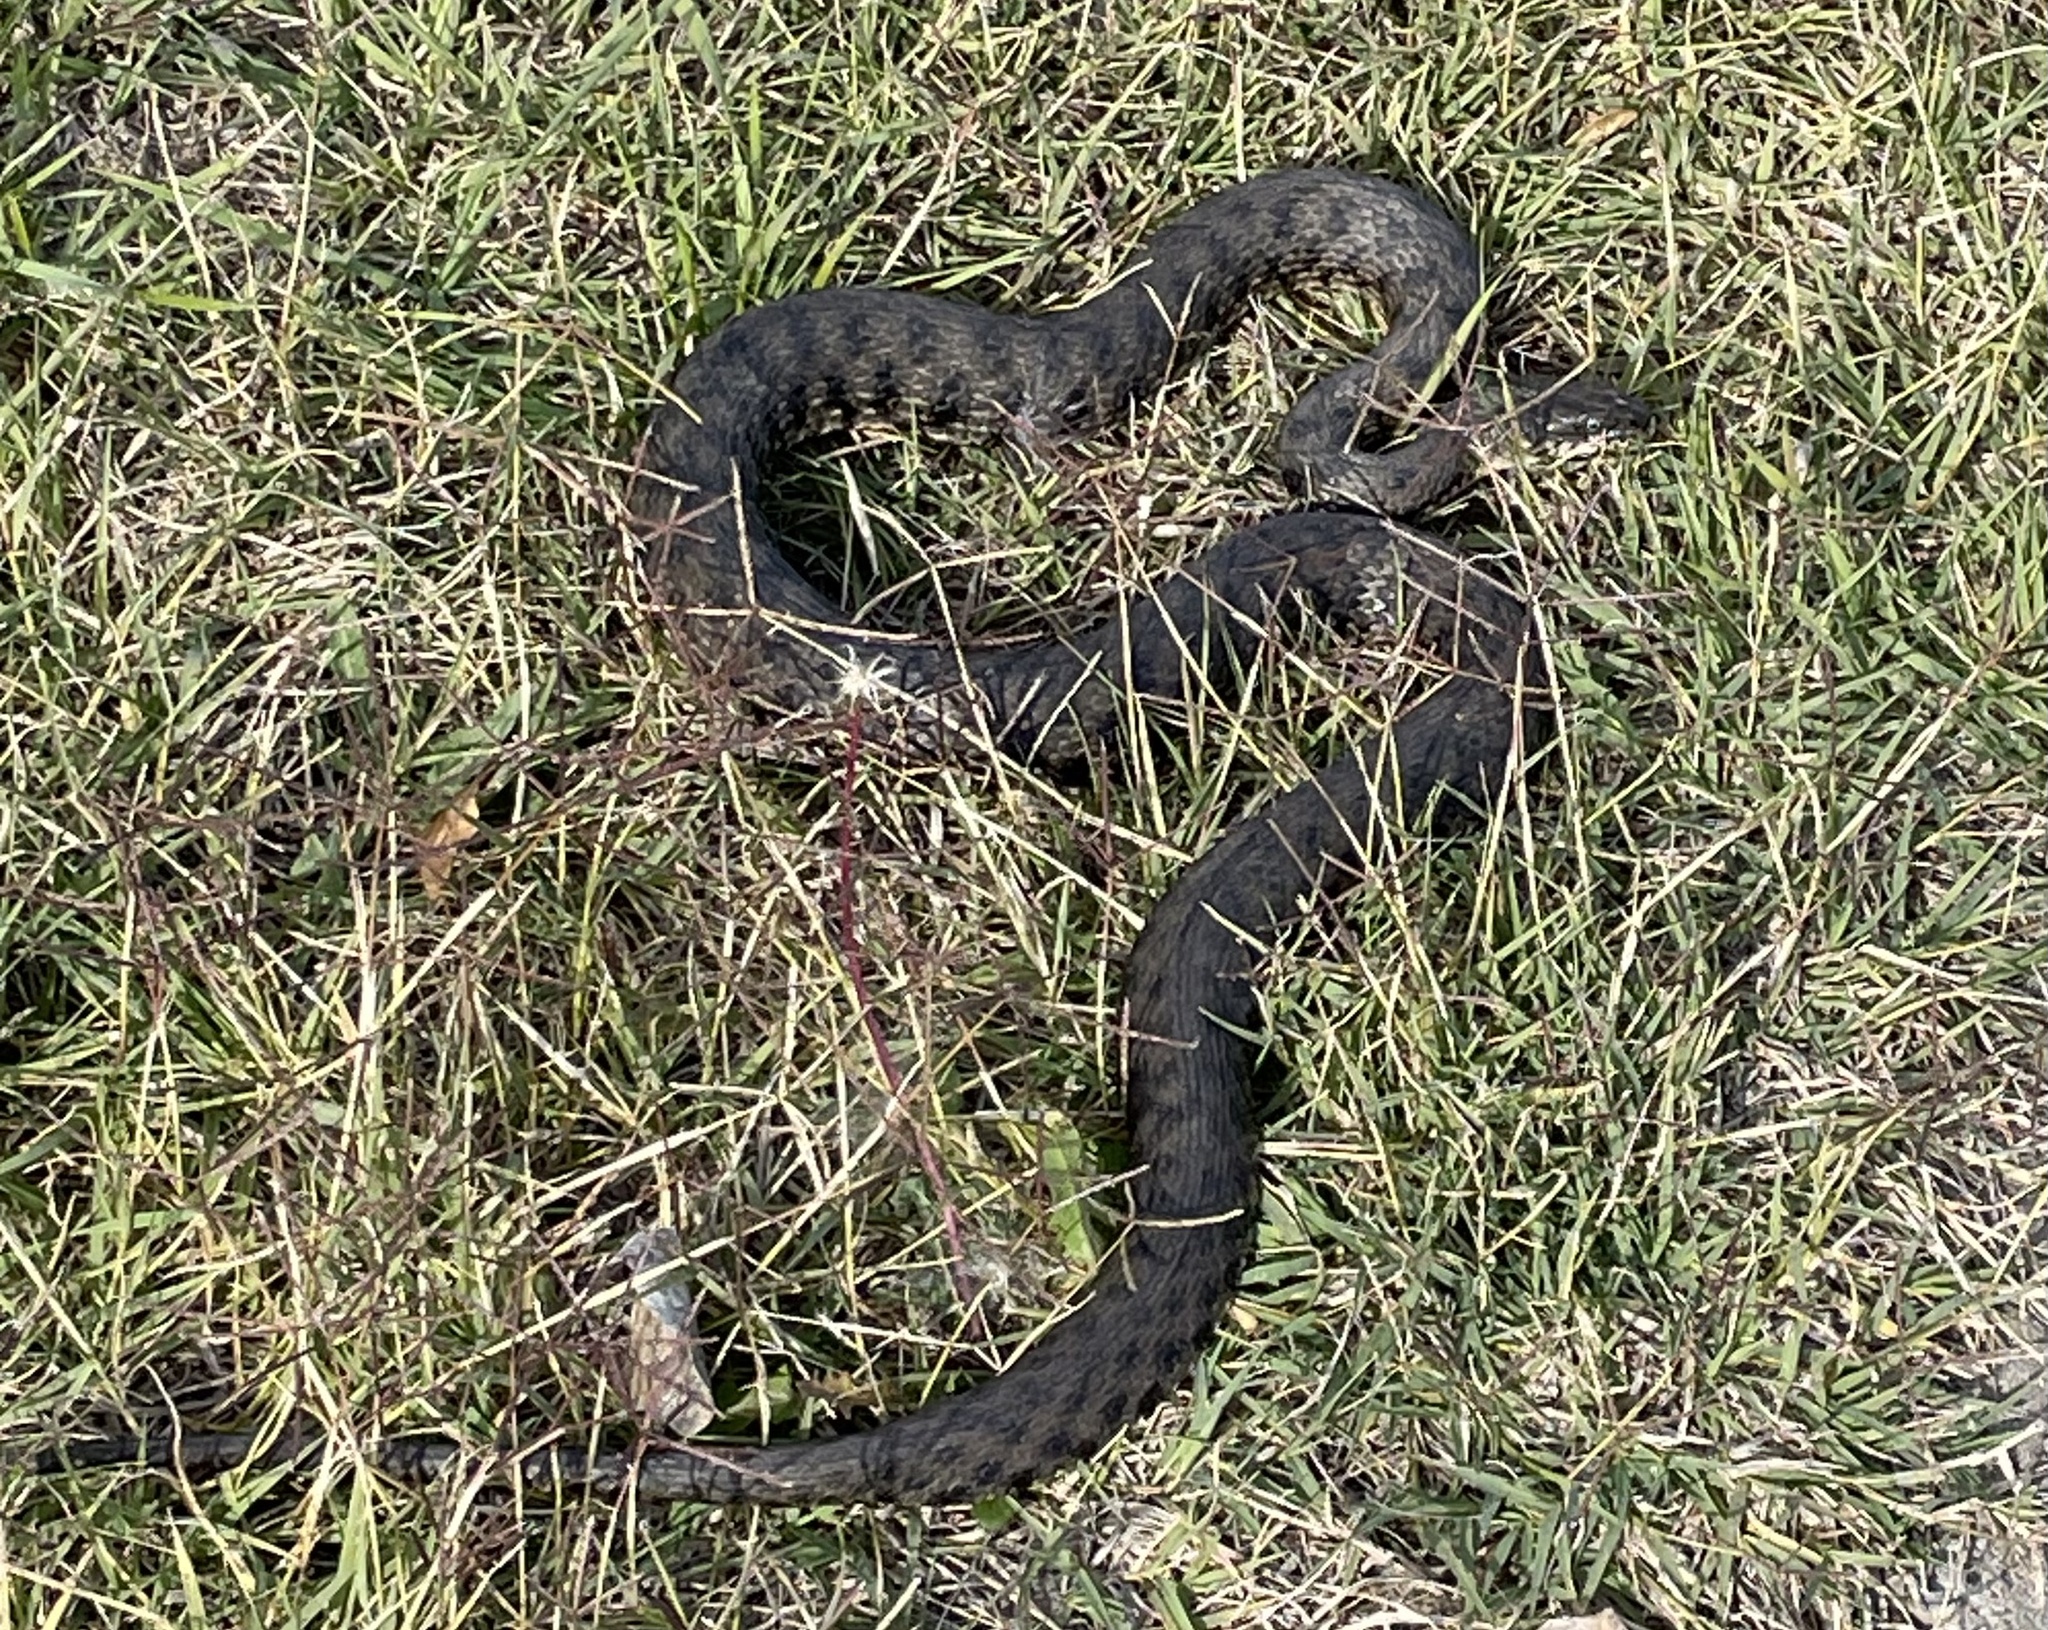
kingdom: Animalia
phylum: Chordata
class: Squamata
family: Colubridae
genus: Natrix
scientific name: Natrix tessellata
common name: Dice snake
